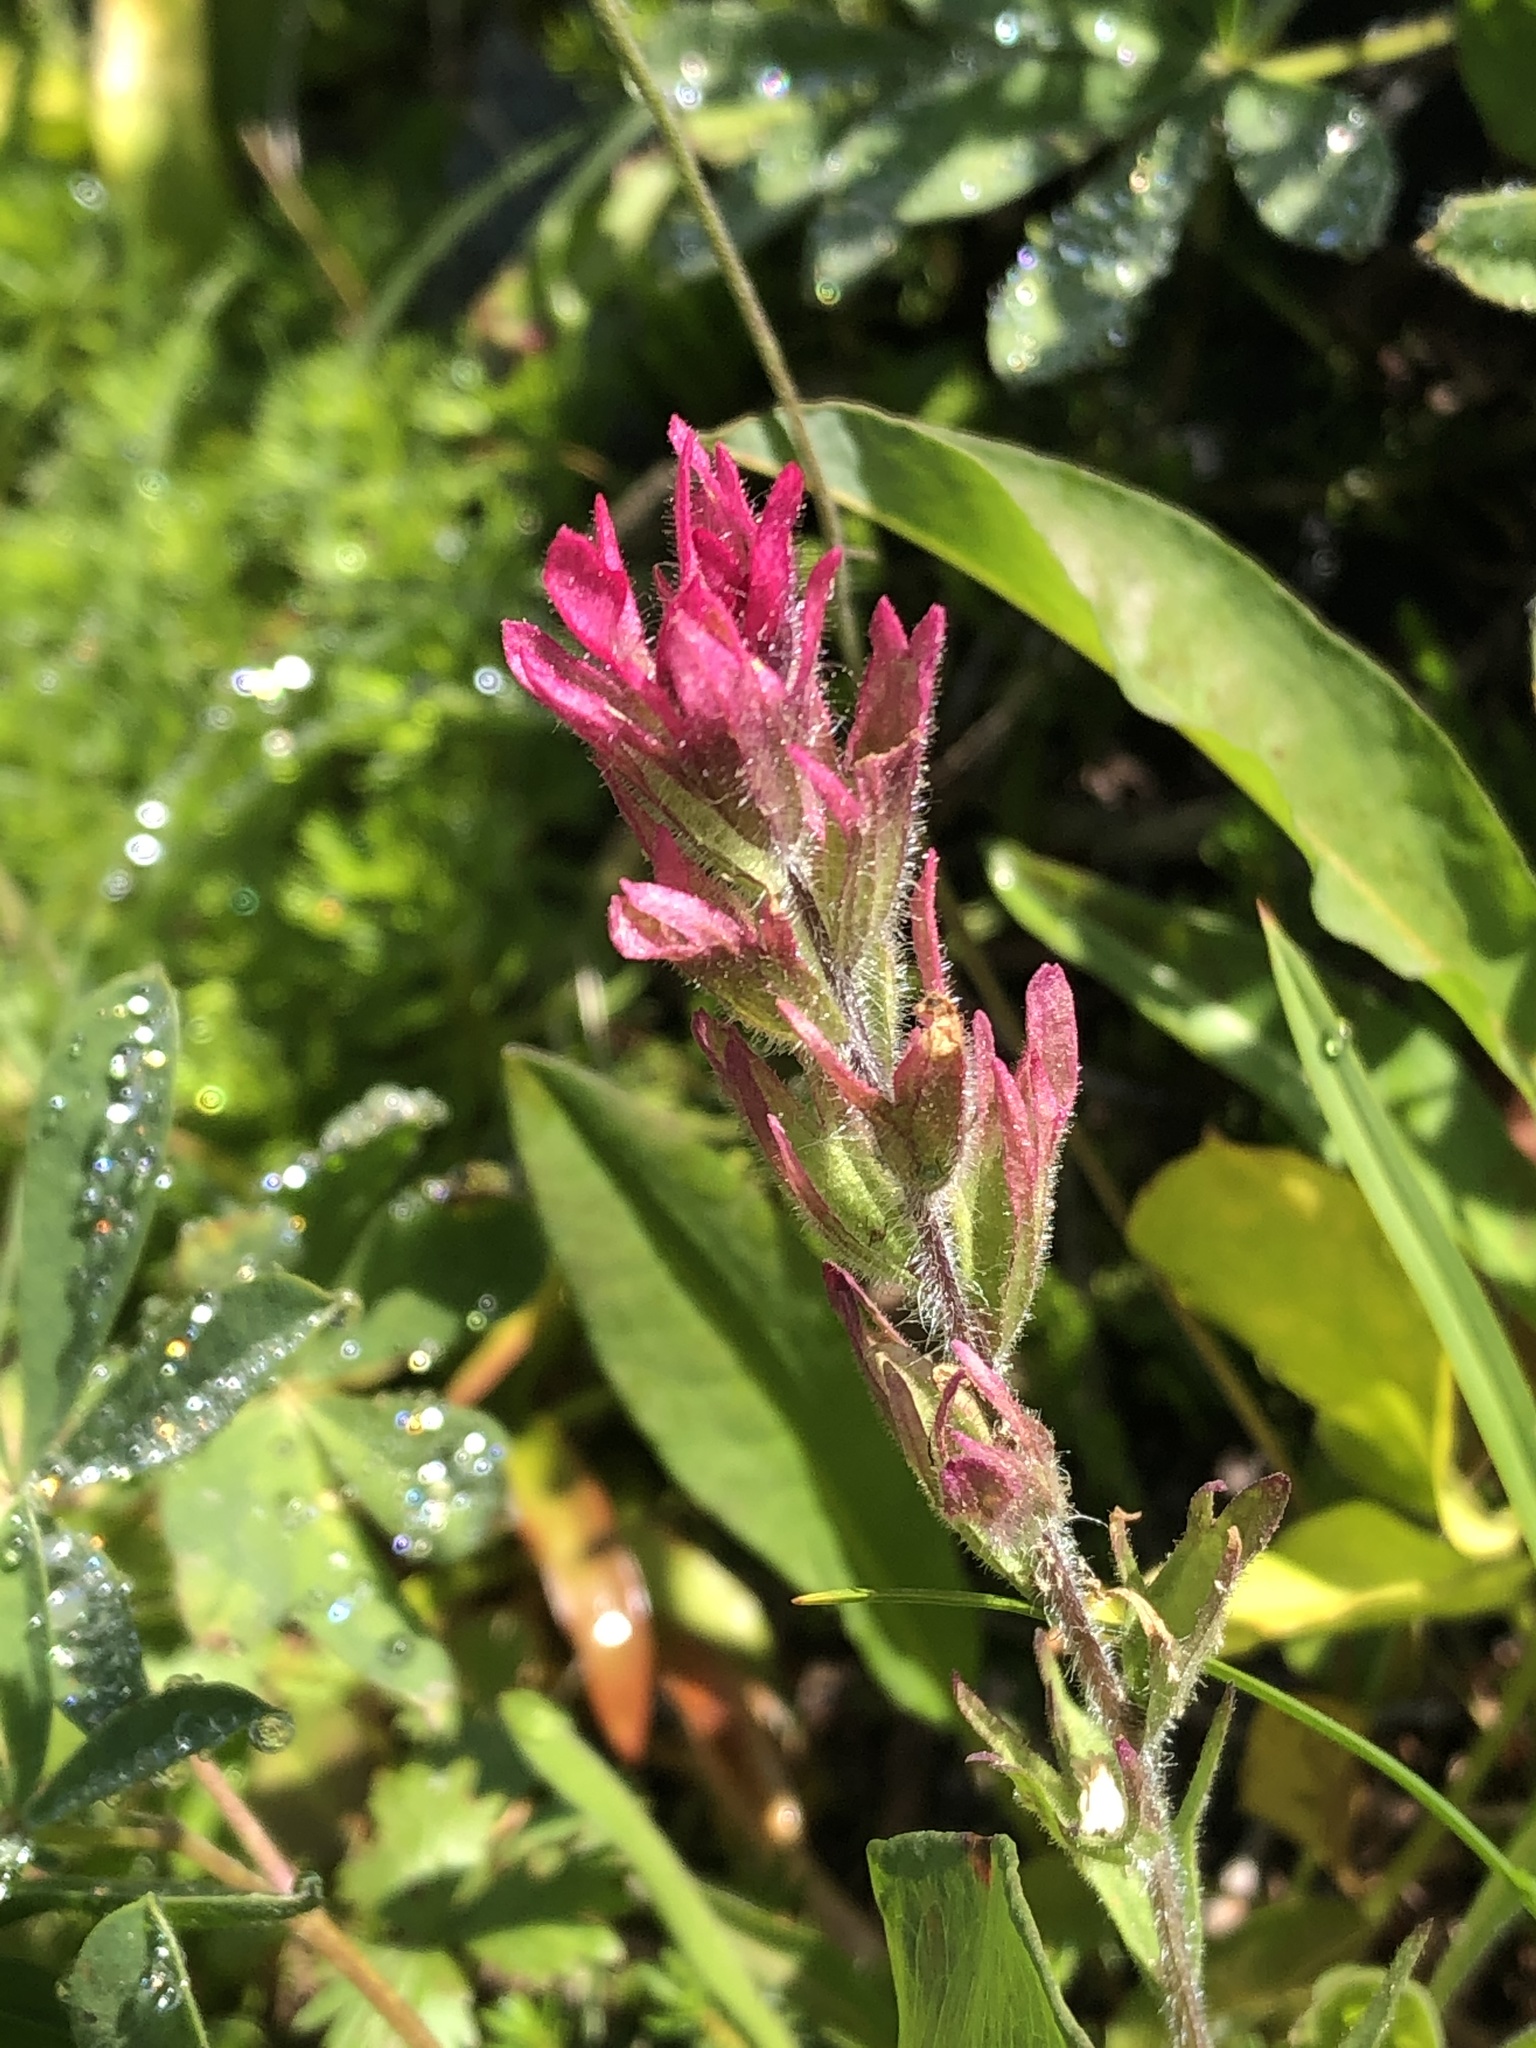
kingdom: Plantae
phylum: Tracheophyta
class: Magnoliopsida
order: Lamiales
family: Orobanchaceae
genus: Castilleja
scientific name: Castilleja parviflora
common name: Mountain paintbrush
